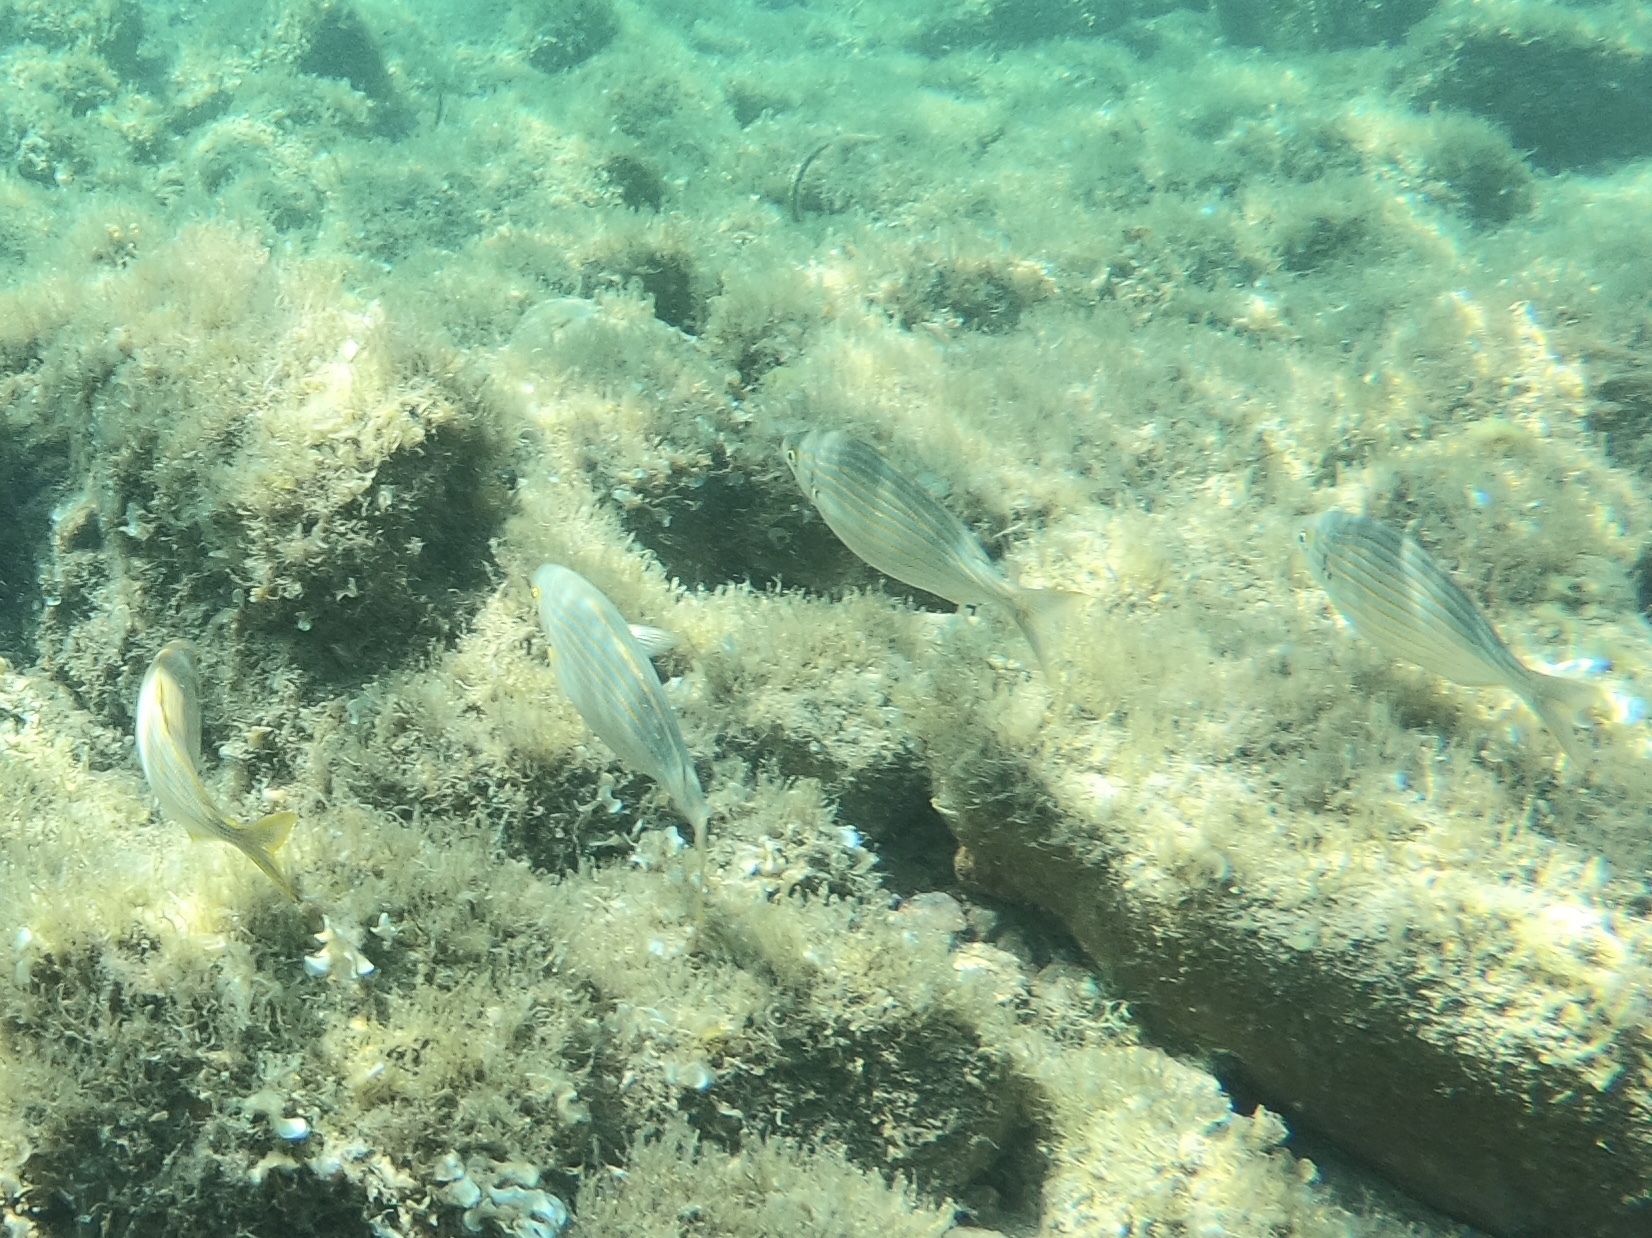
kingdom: Animalia
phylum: Chordata
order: Perciformes
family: Sparidae
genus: Sarpa
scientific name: Sarpa salpa
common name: Salema
